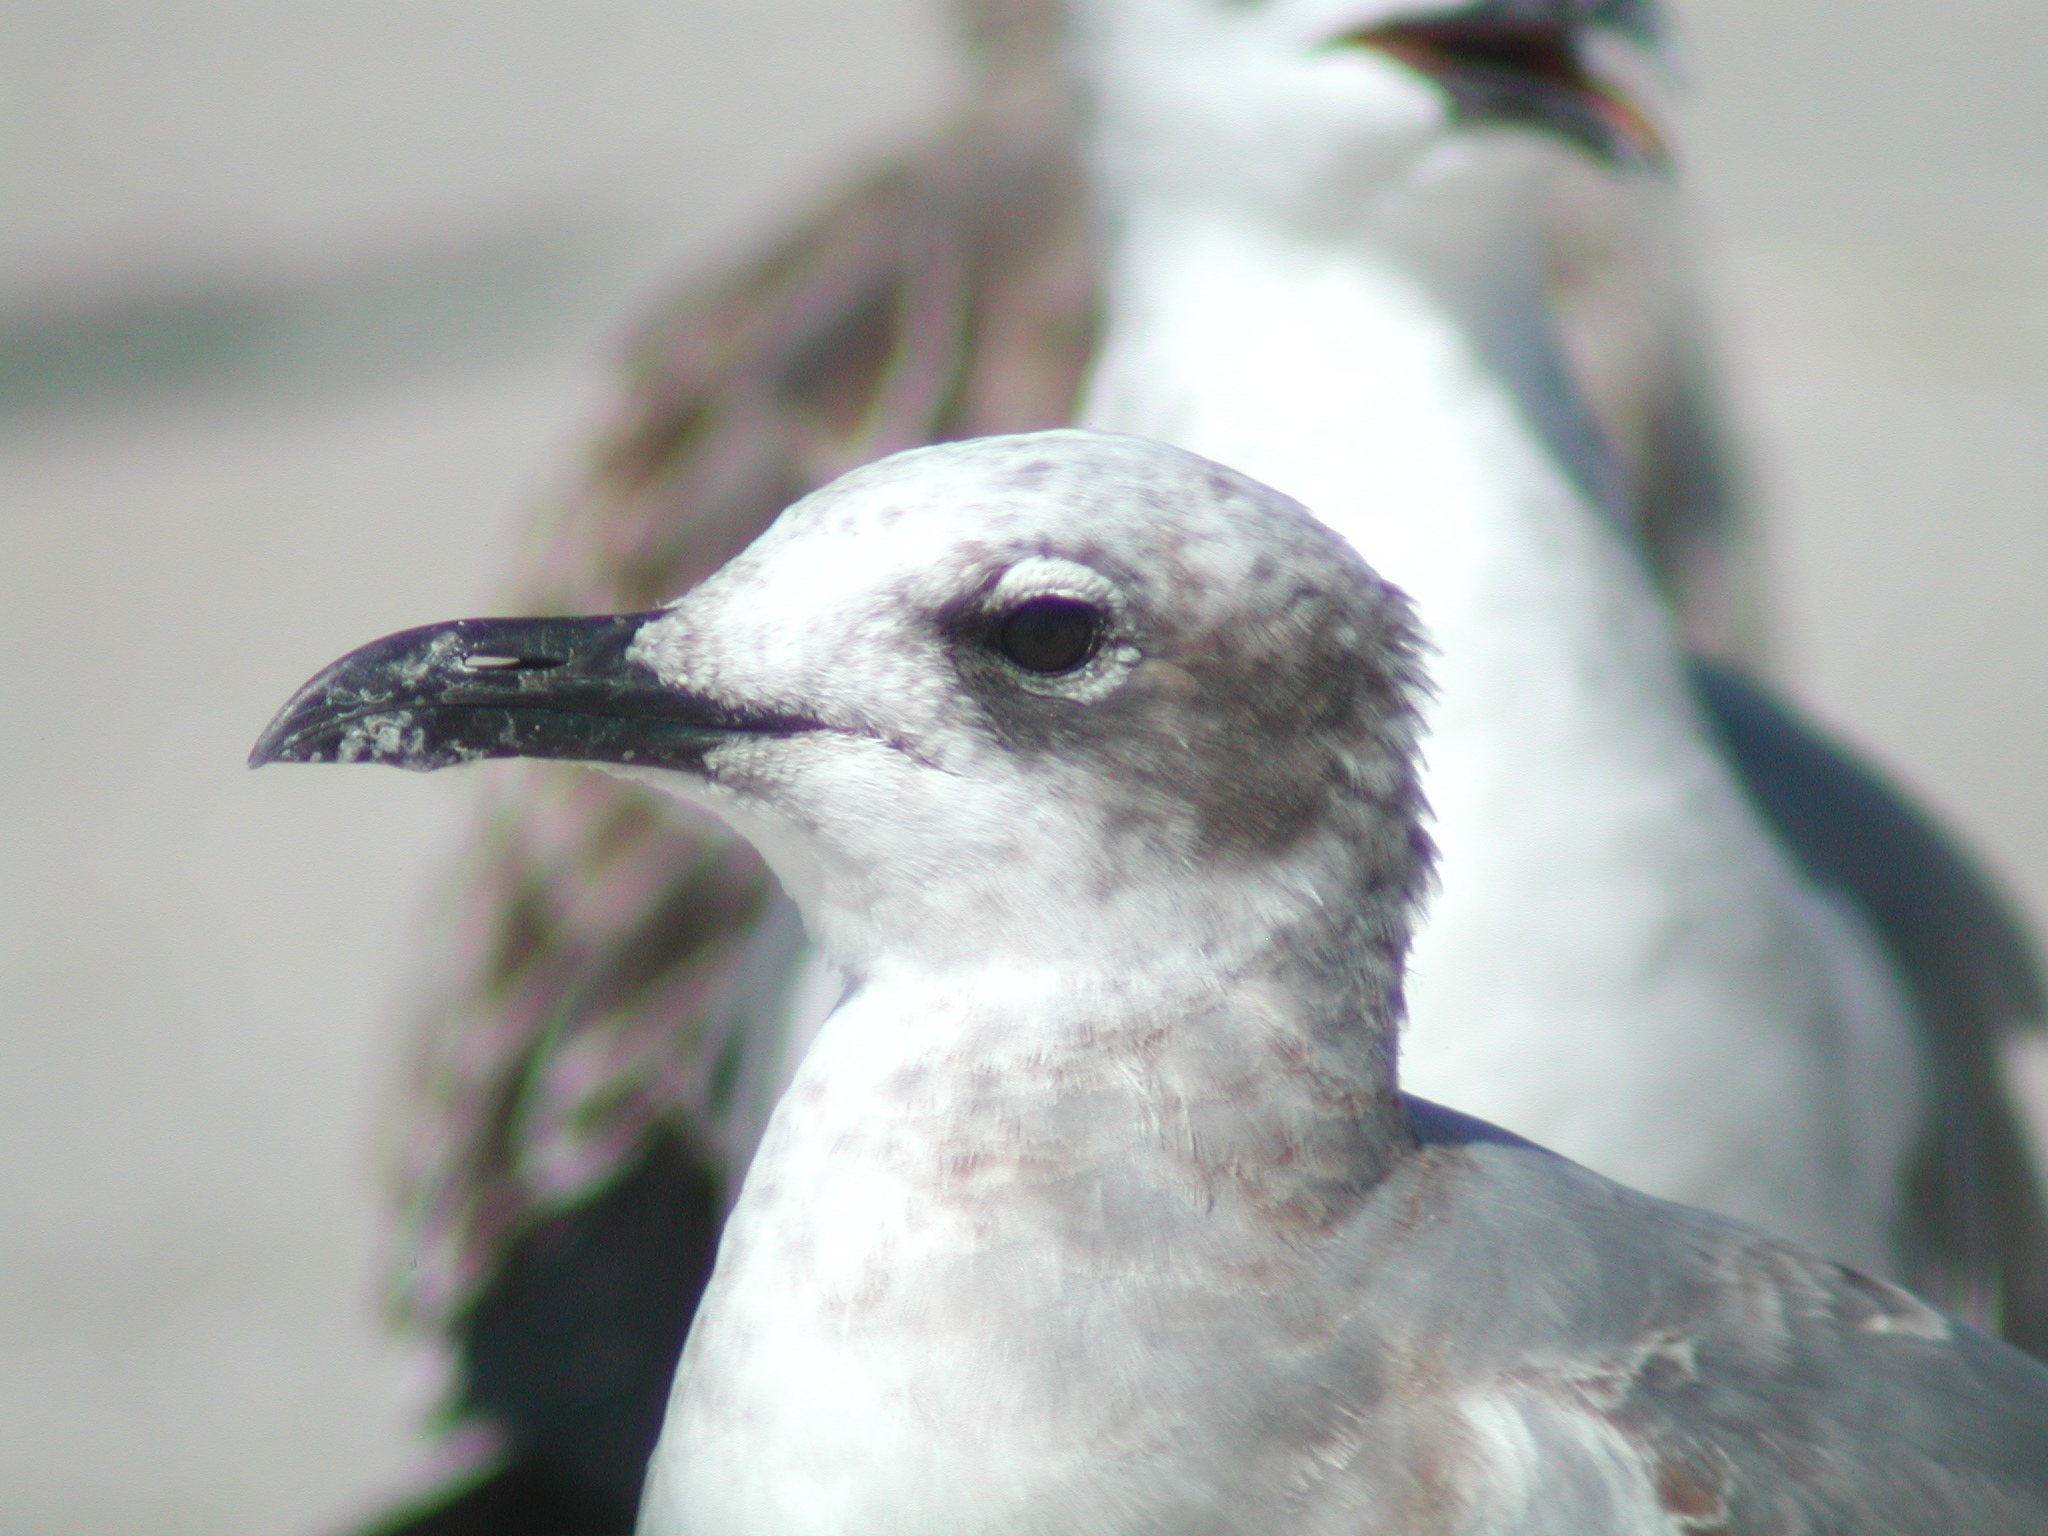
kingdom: Animalia
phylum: Chordata
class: Aves
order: Charadriiformes
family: Laridae
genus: Leucophaeus
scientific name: Leucophaeus atricilla
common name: Laughing gull
